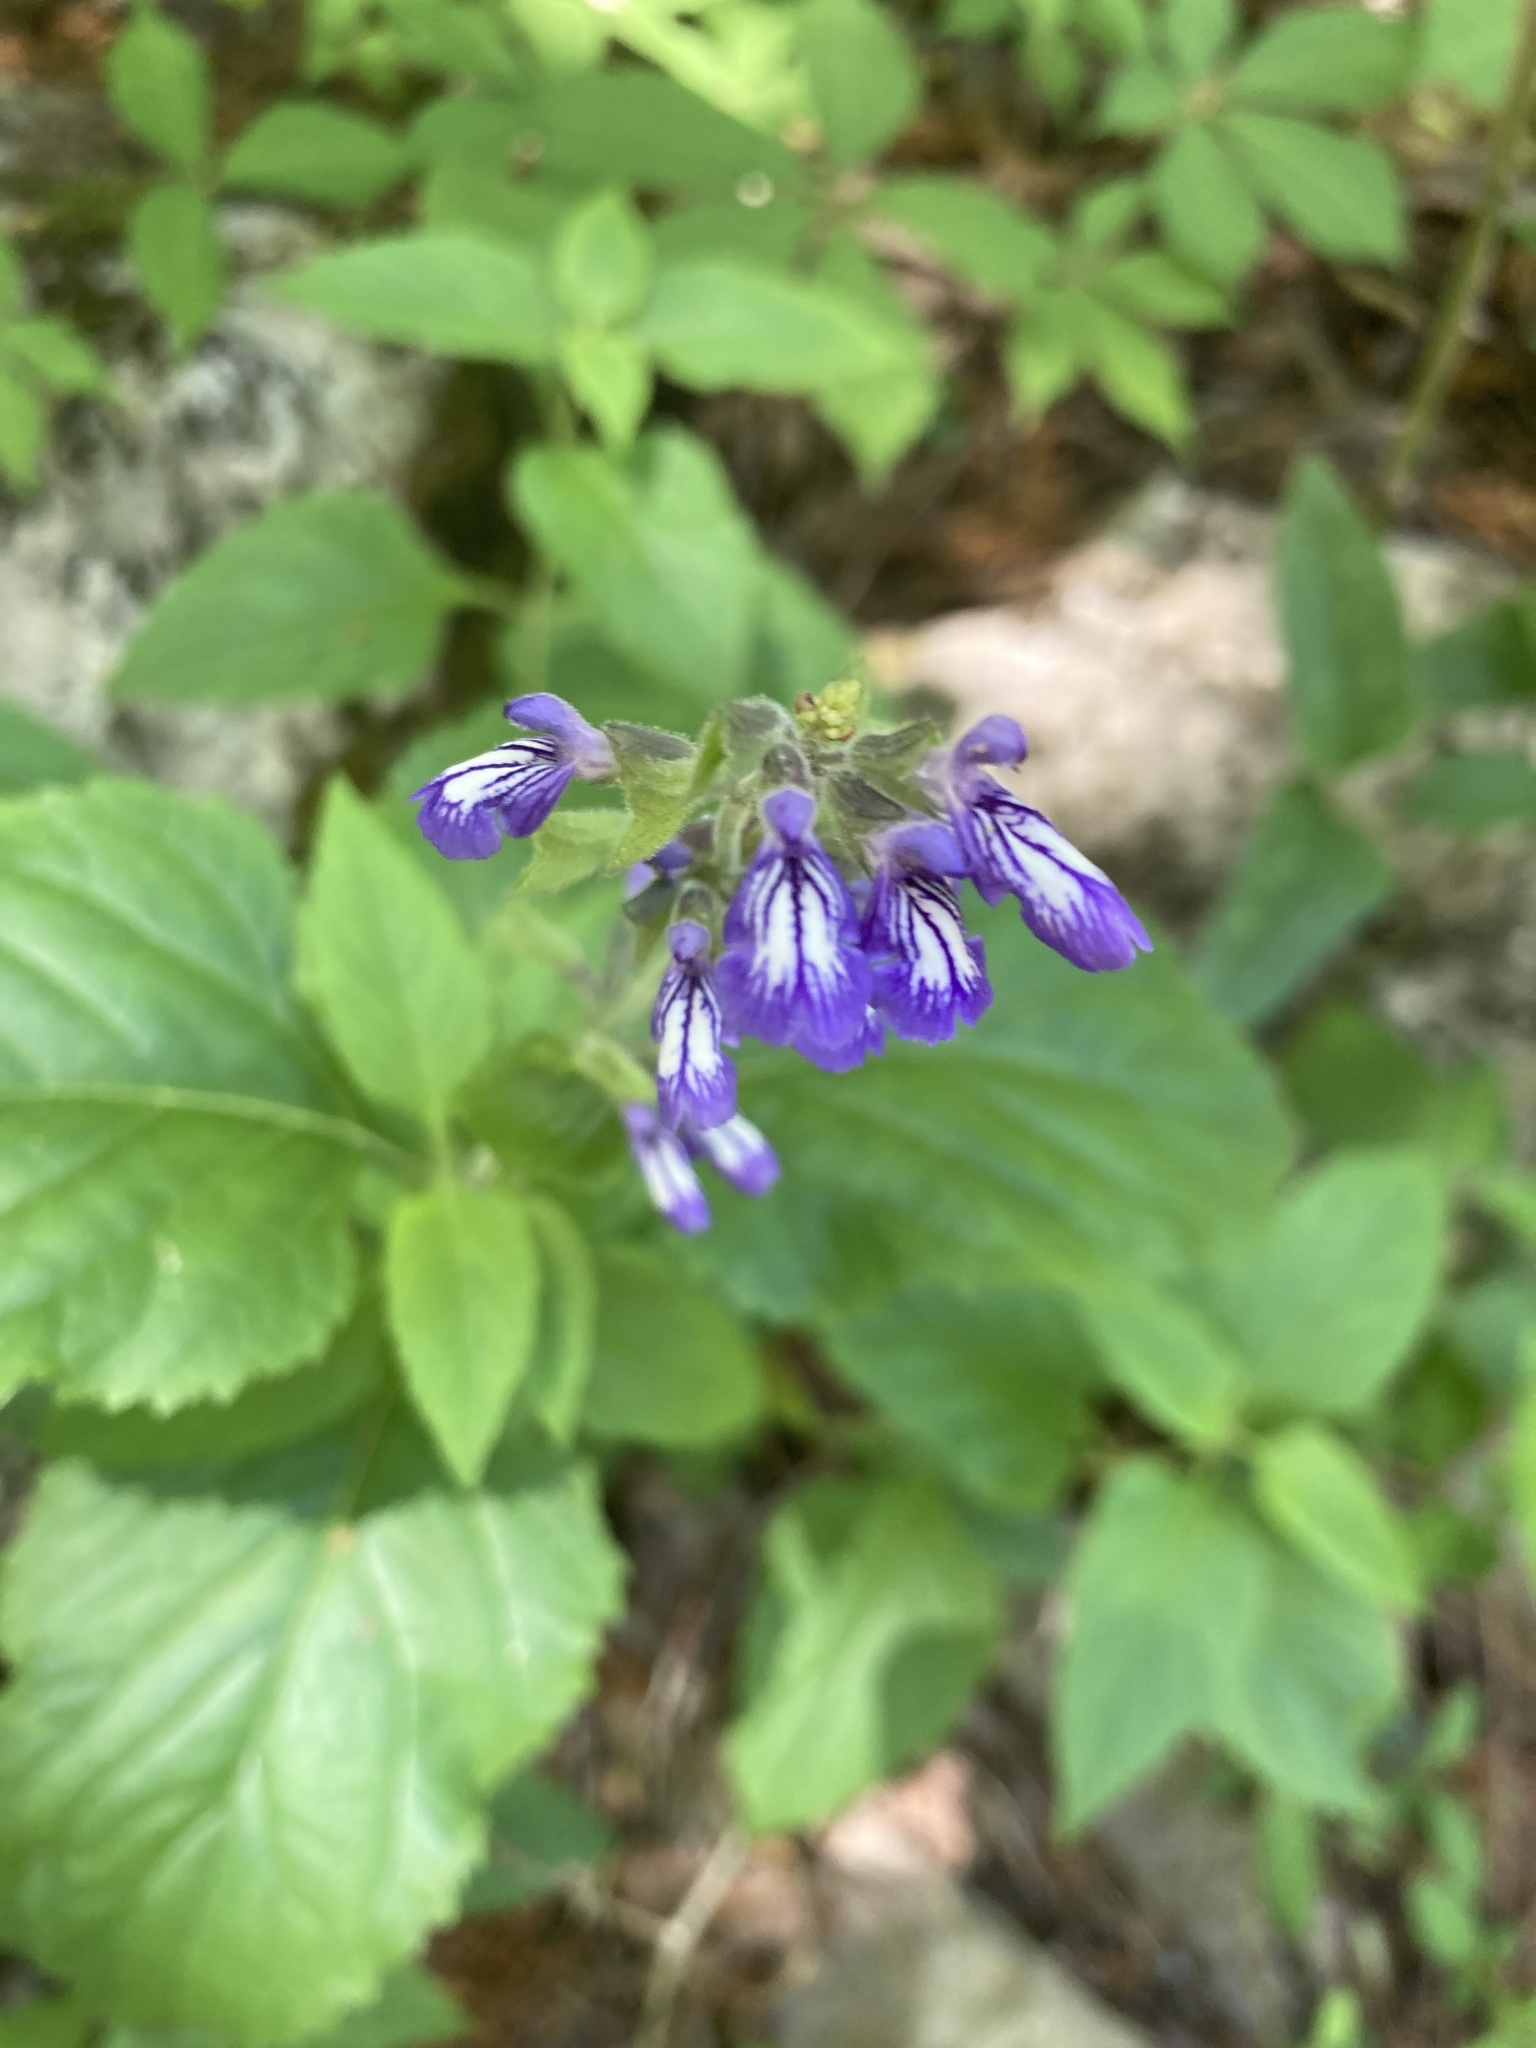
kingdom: Plantae
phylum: Tracheophyta
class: Magnoliopsida
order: Lamiales
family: Lamiaceae
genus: Salvia
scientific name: Salvia urticifolia
